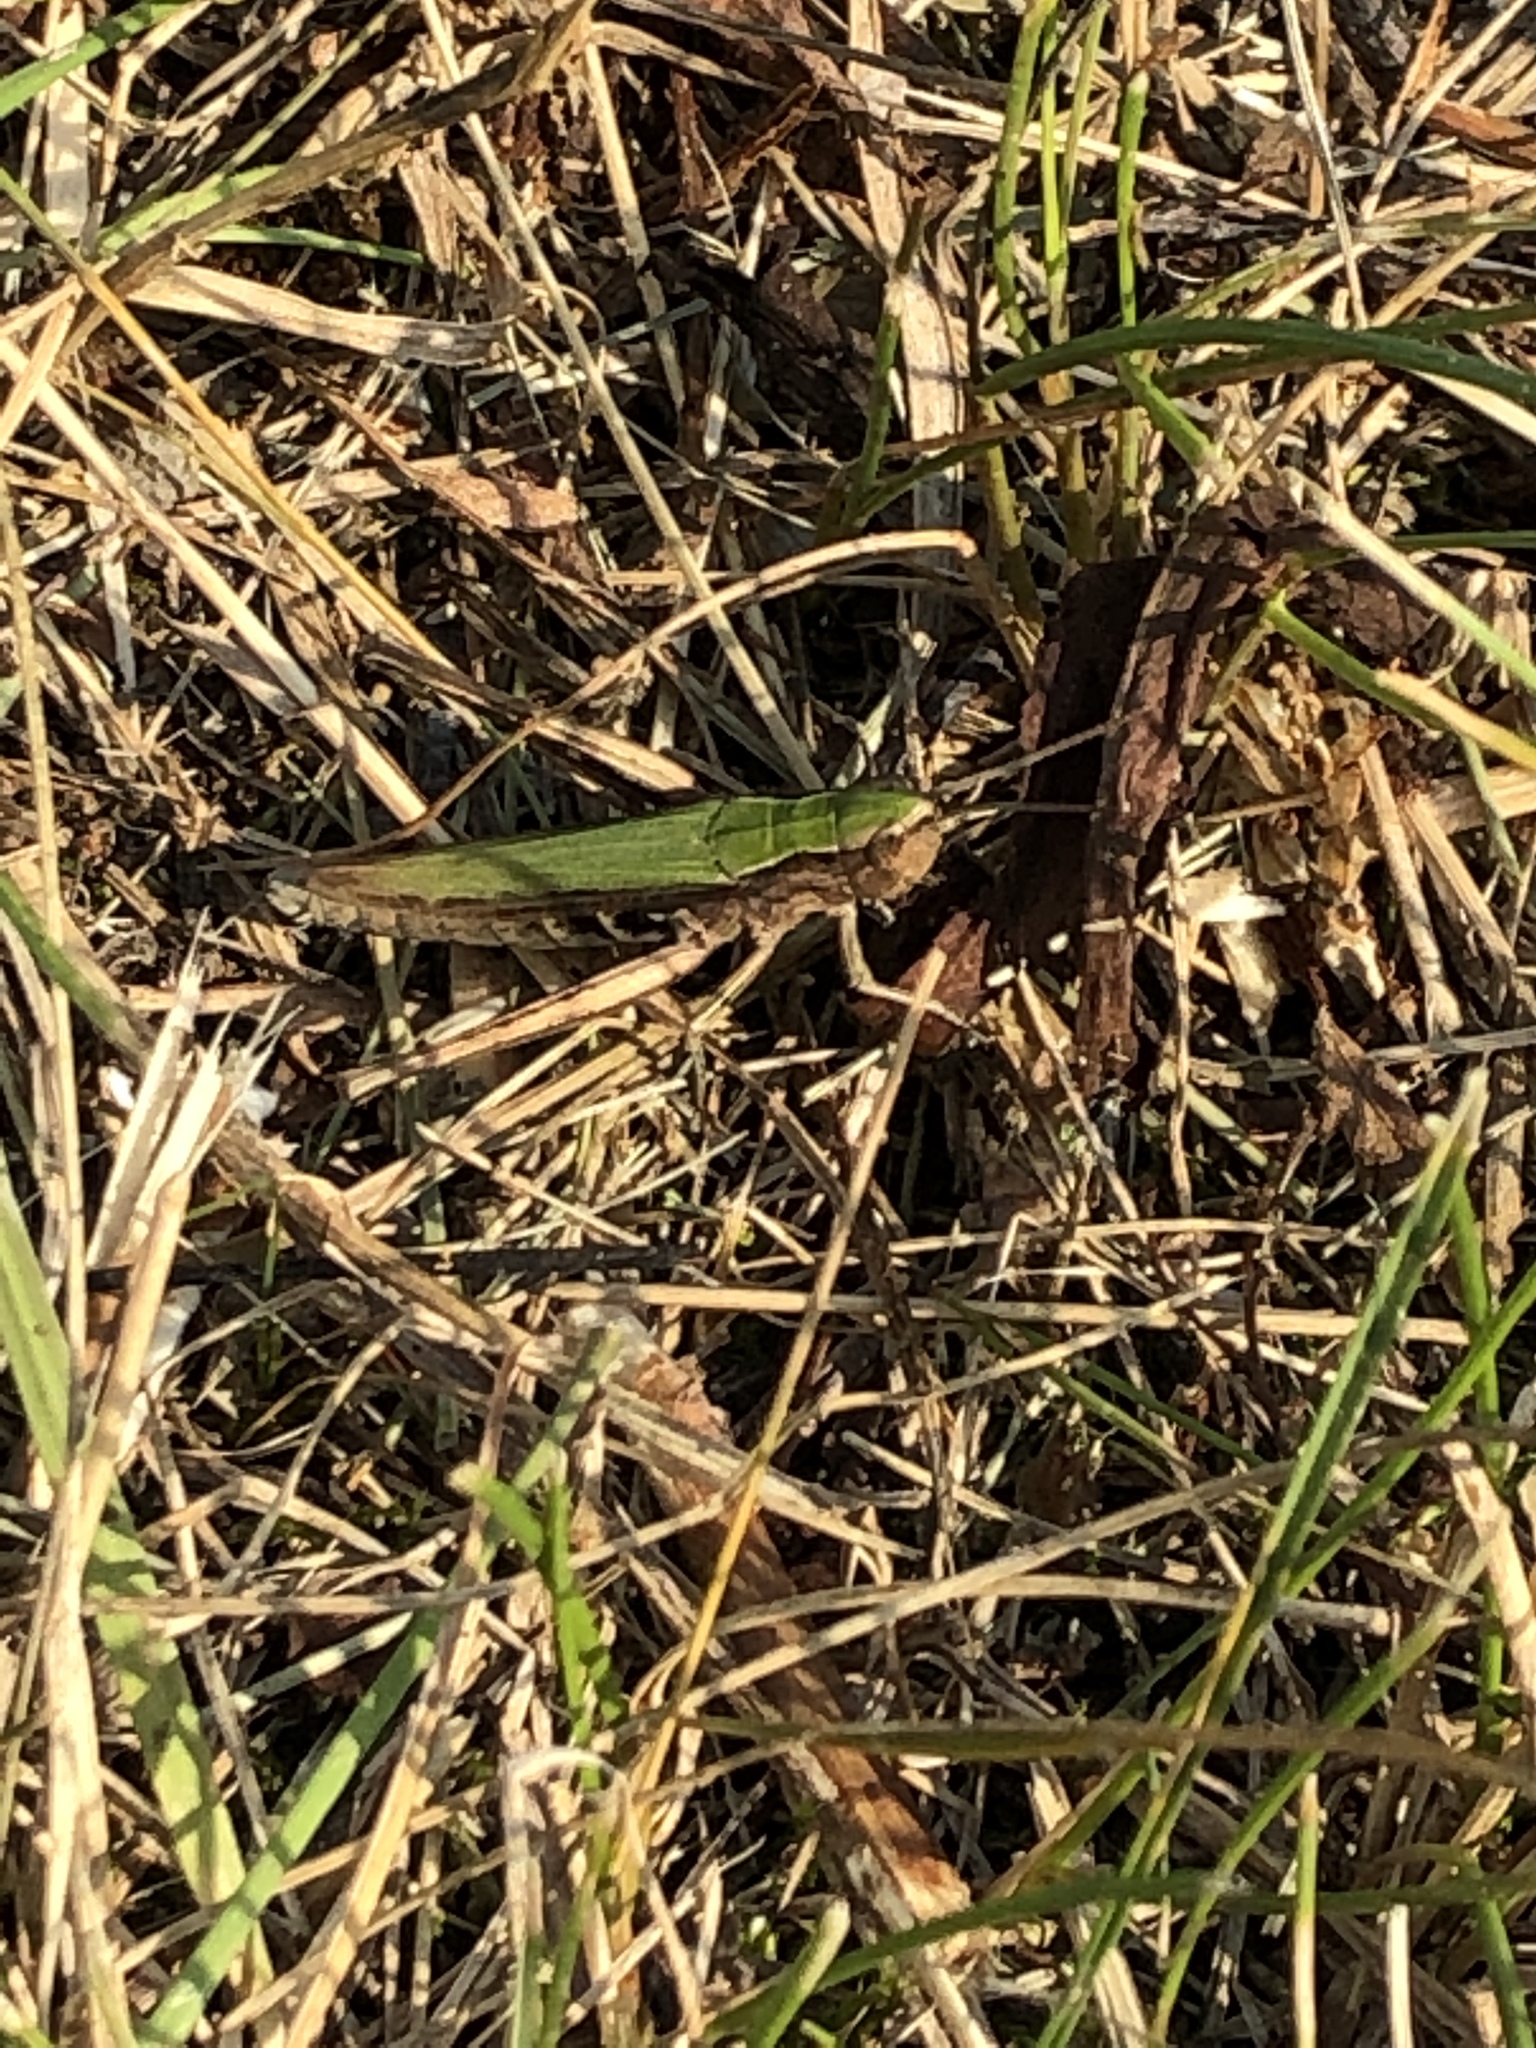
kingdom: Animalia
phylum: Arthropoda
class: Insecta
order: Orthoptera
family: Acrididae
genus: Chorthippus
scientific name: Chorthippus dorsatus
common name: Steppe grasshopper
